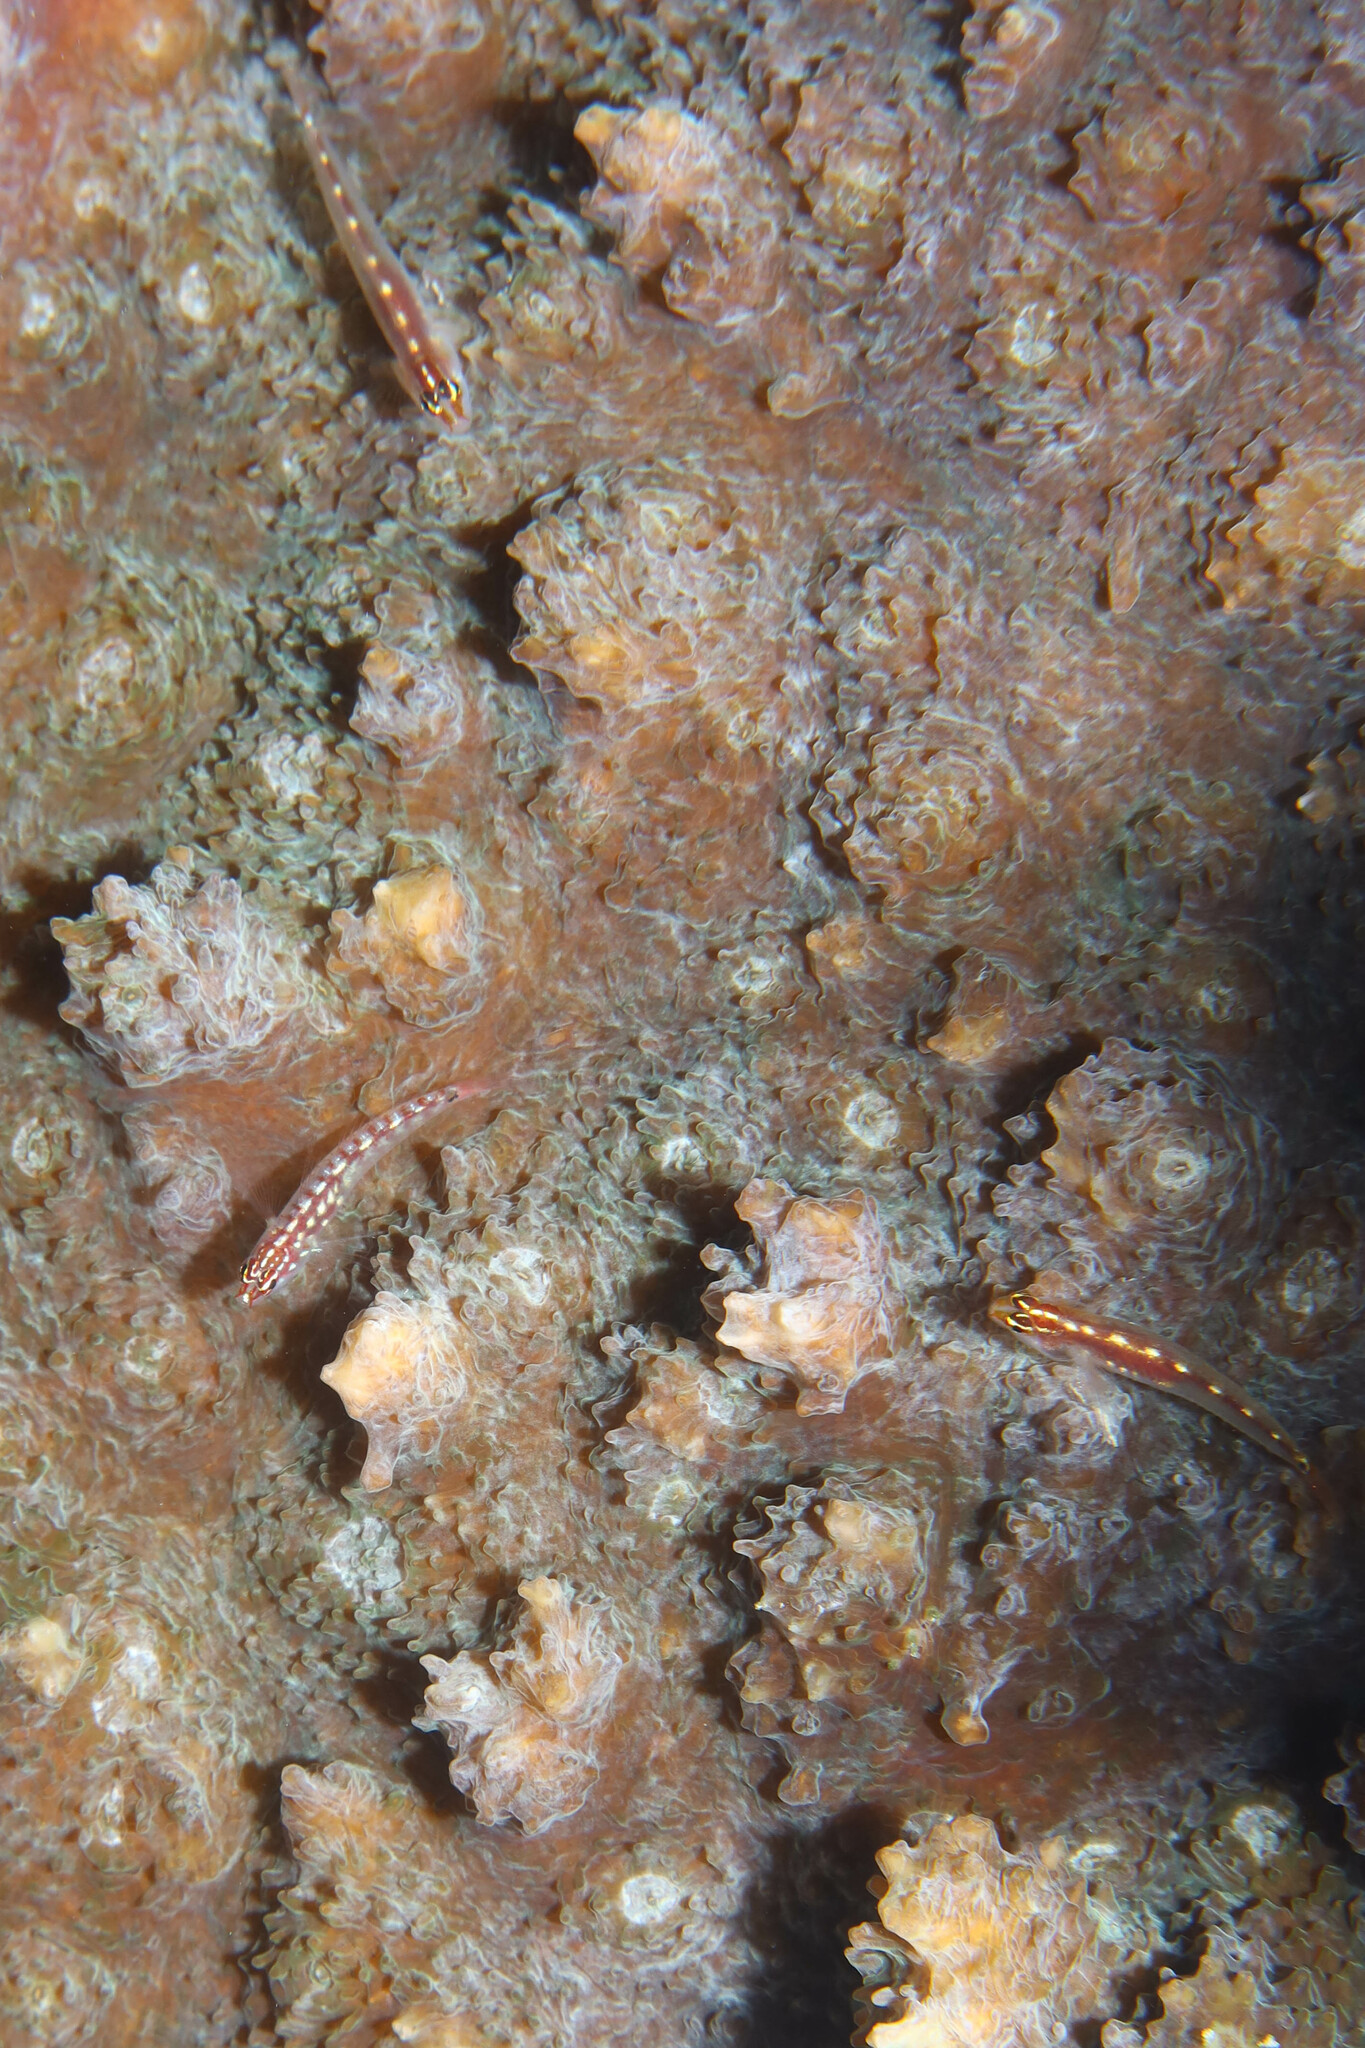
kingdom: Animalia
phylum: Chordata
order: Perciformes
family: Gobiidae
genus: Eviota
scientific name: Eviota punyit
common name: Punyit dwarfgoby
